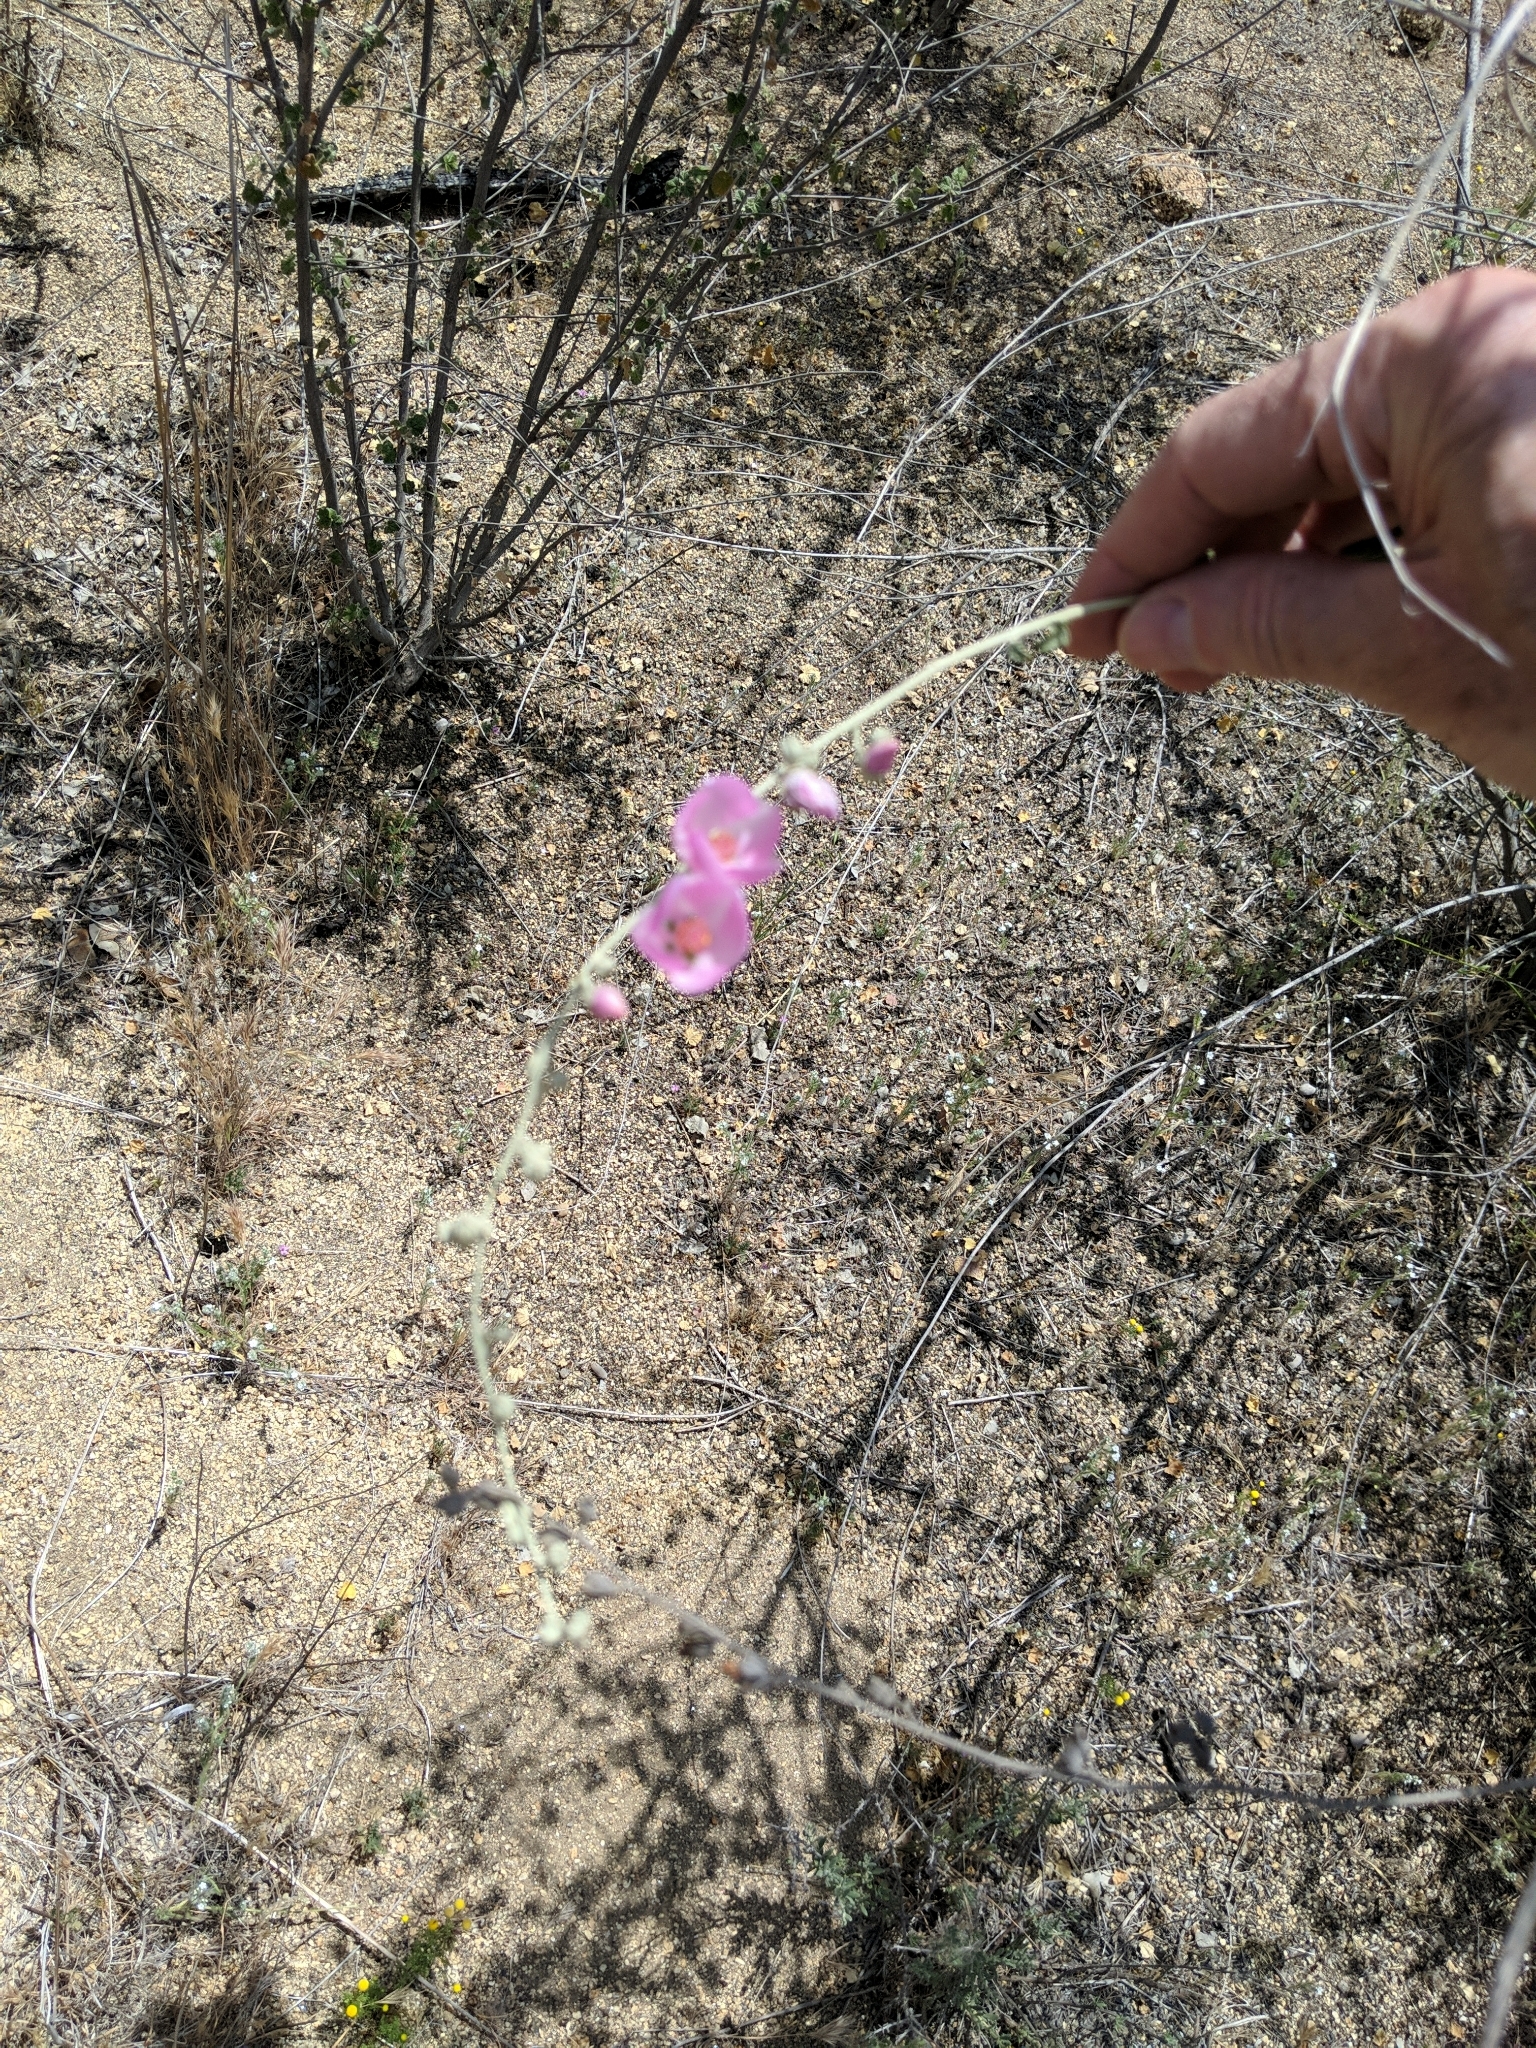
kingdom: Plantae
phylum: Tracheophyta
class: Magnoliopsida
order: Malvales
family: Malvaceae
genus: Malacothamnus
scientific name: Malacothamnus fasciculatus
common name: Sant cruz island bush-mallow
